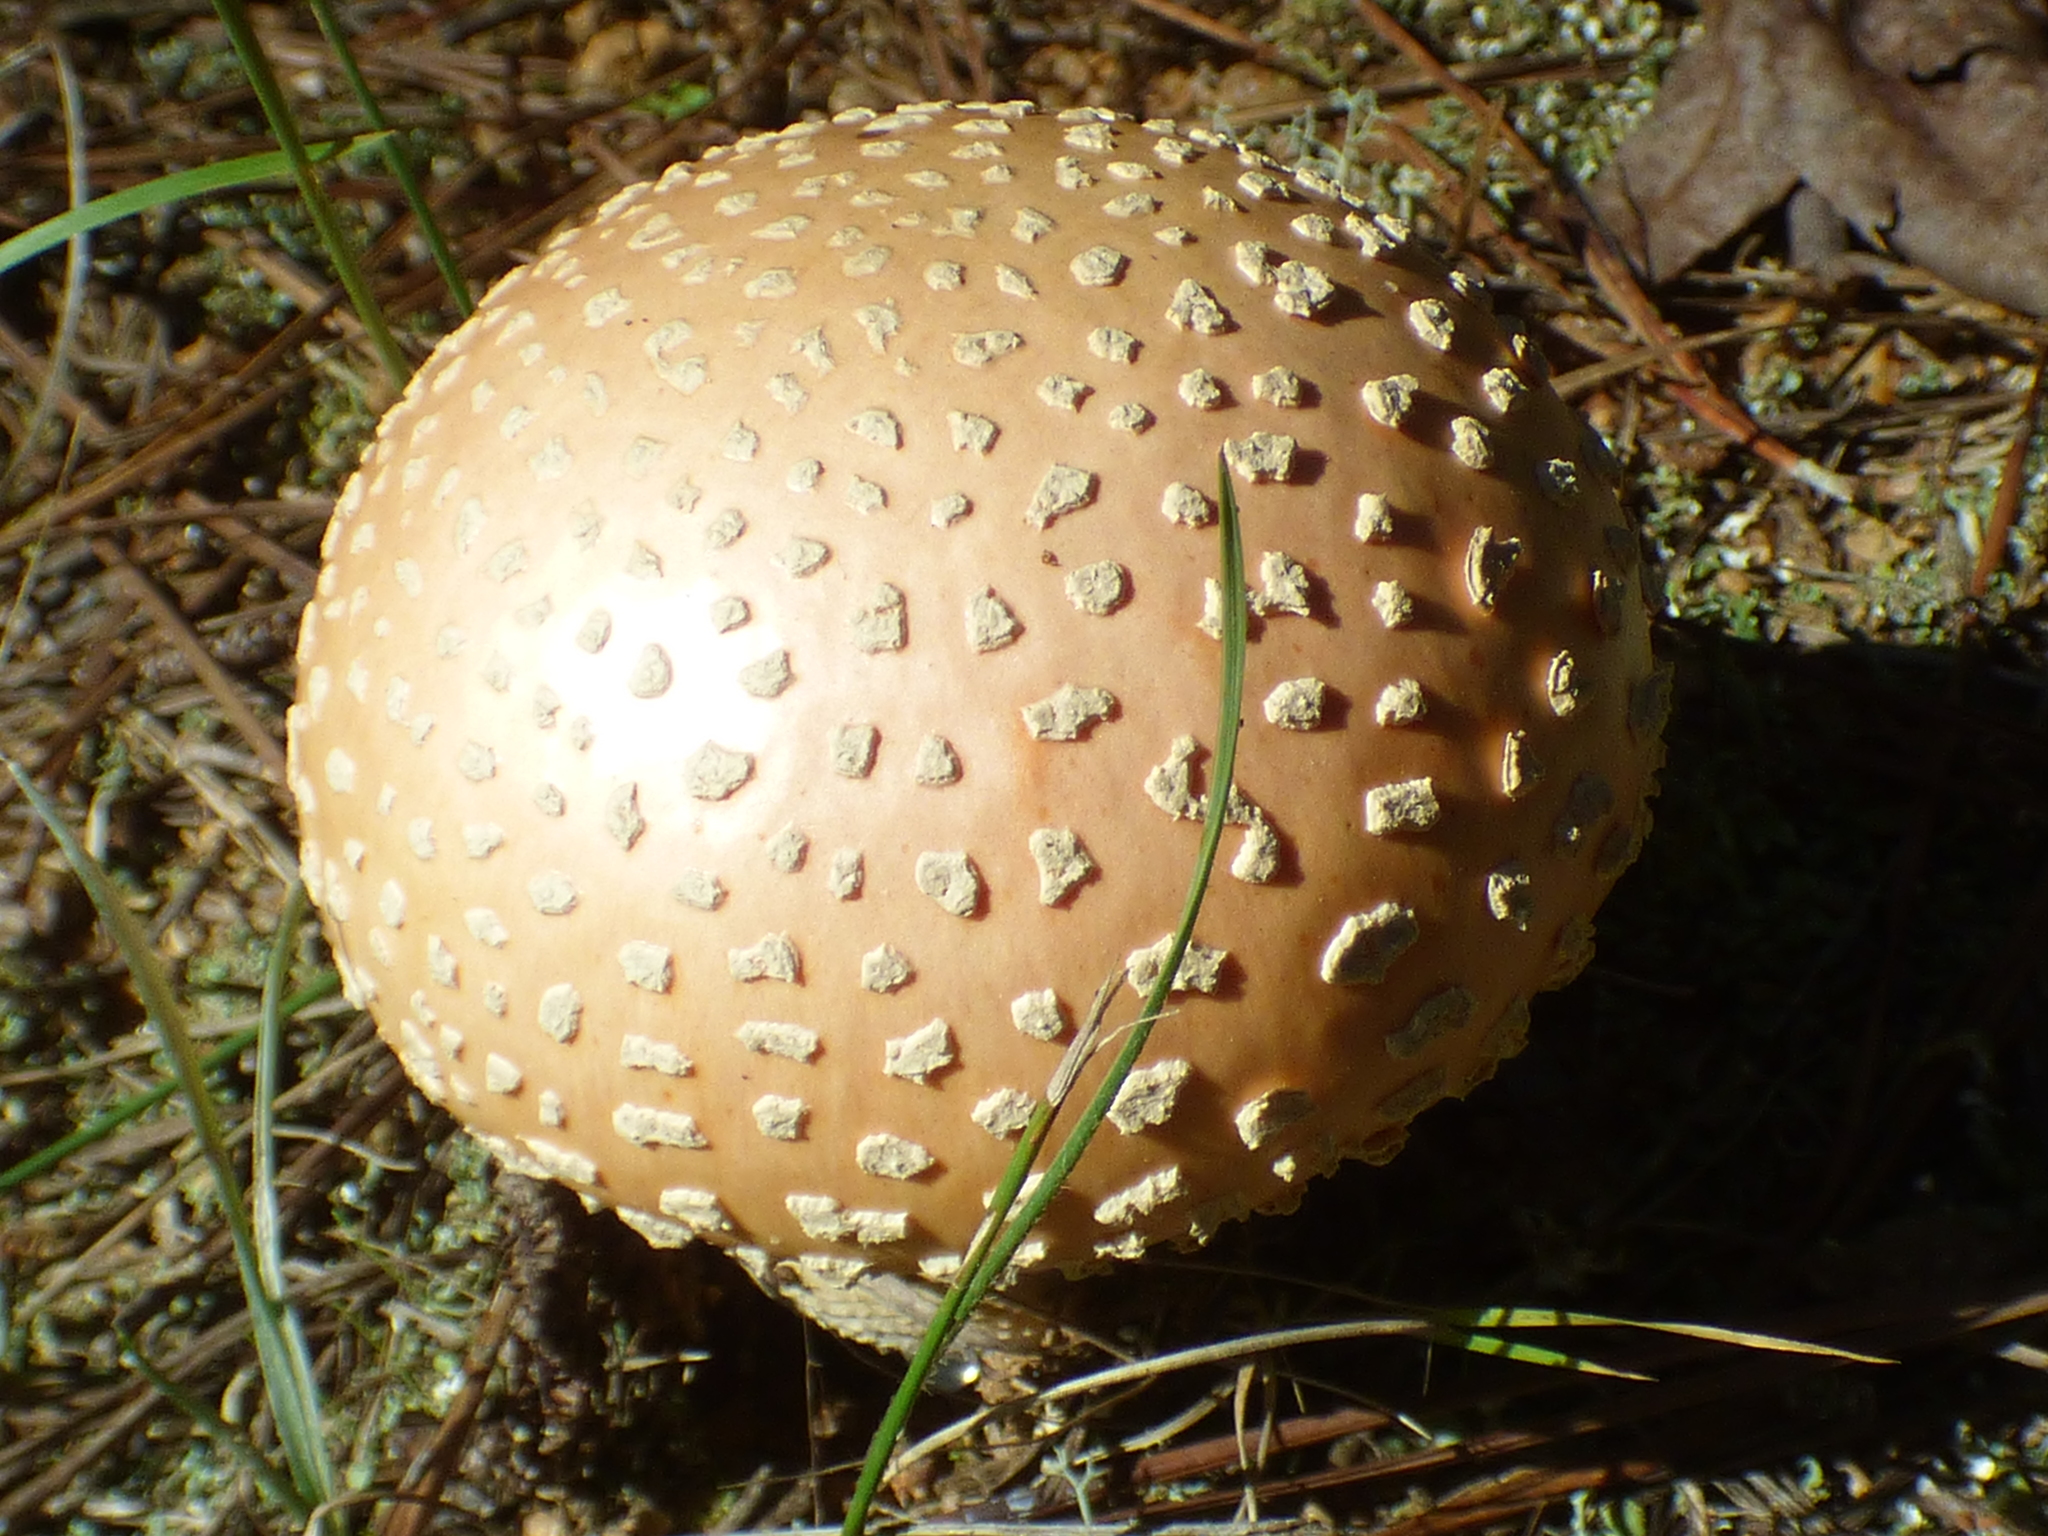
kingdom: Fungi
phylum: Basidiomycota
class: Agaricomycetes
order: Agaricales
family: Amanitaceae
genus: Amanita
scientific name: Amanita persicina
